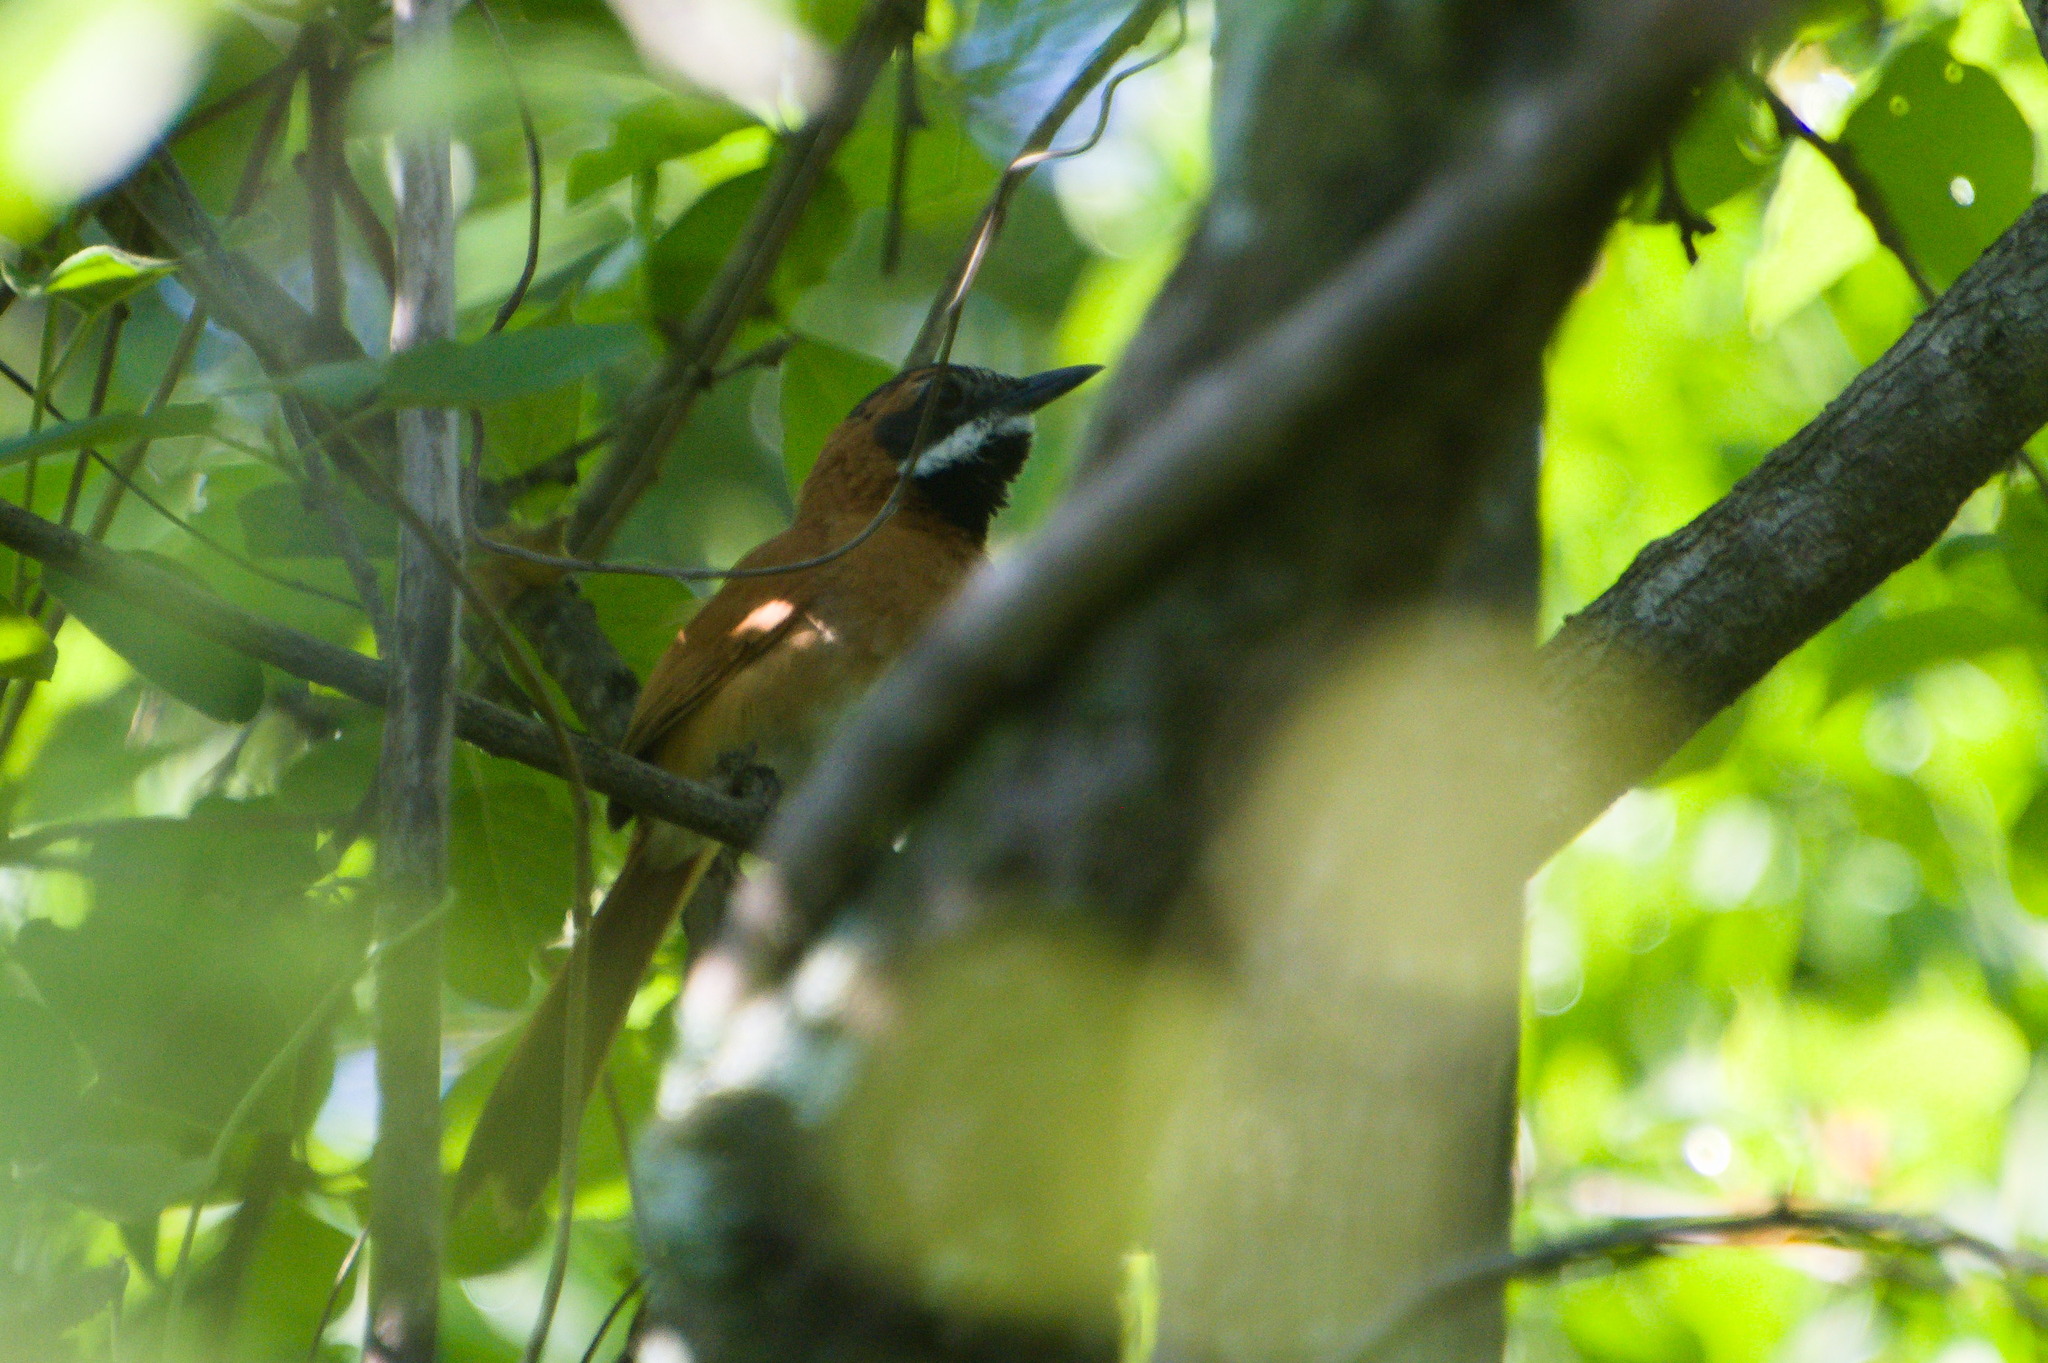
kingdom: Animalia
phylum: Chordata
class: Aves
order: Passeriformes
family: Furnariidae
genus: Synallaxis
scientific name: Synallaxis candei
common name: White-whiskered spinetail
